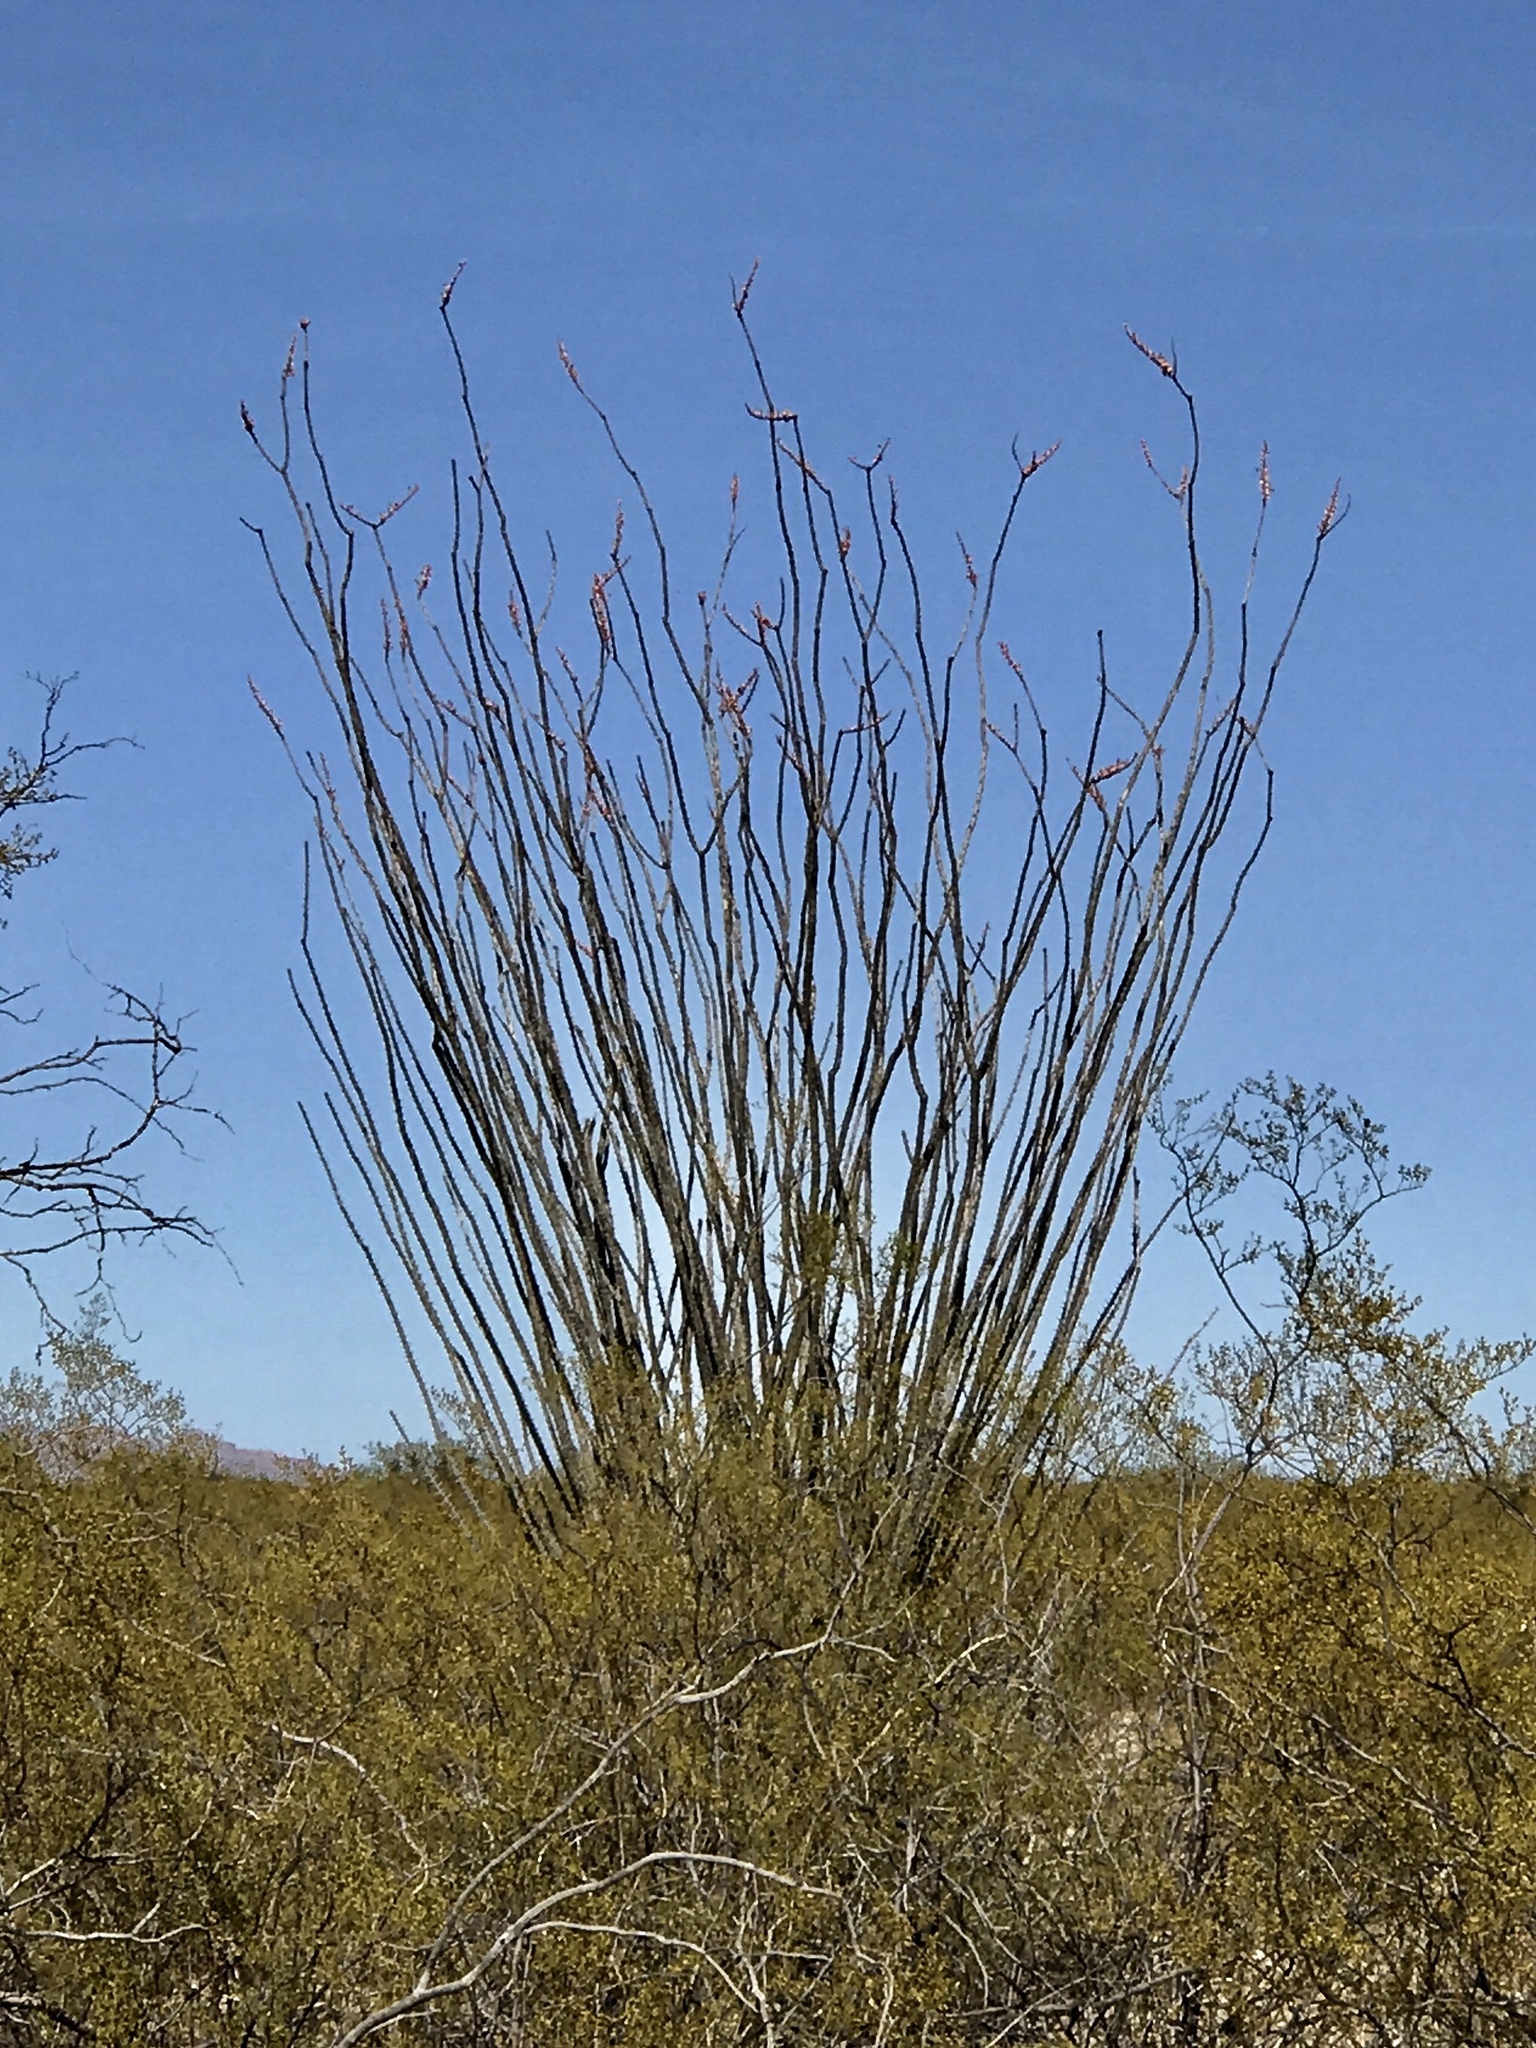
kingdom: Plantae
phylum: Tracheophyta
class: Magnoliopsida
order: Ericales
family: Fouquieriaceae
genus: Fouquieria
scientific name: Fouquieria splendens
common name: Vine-cactus
